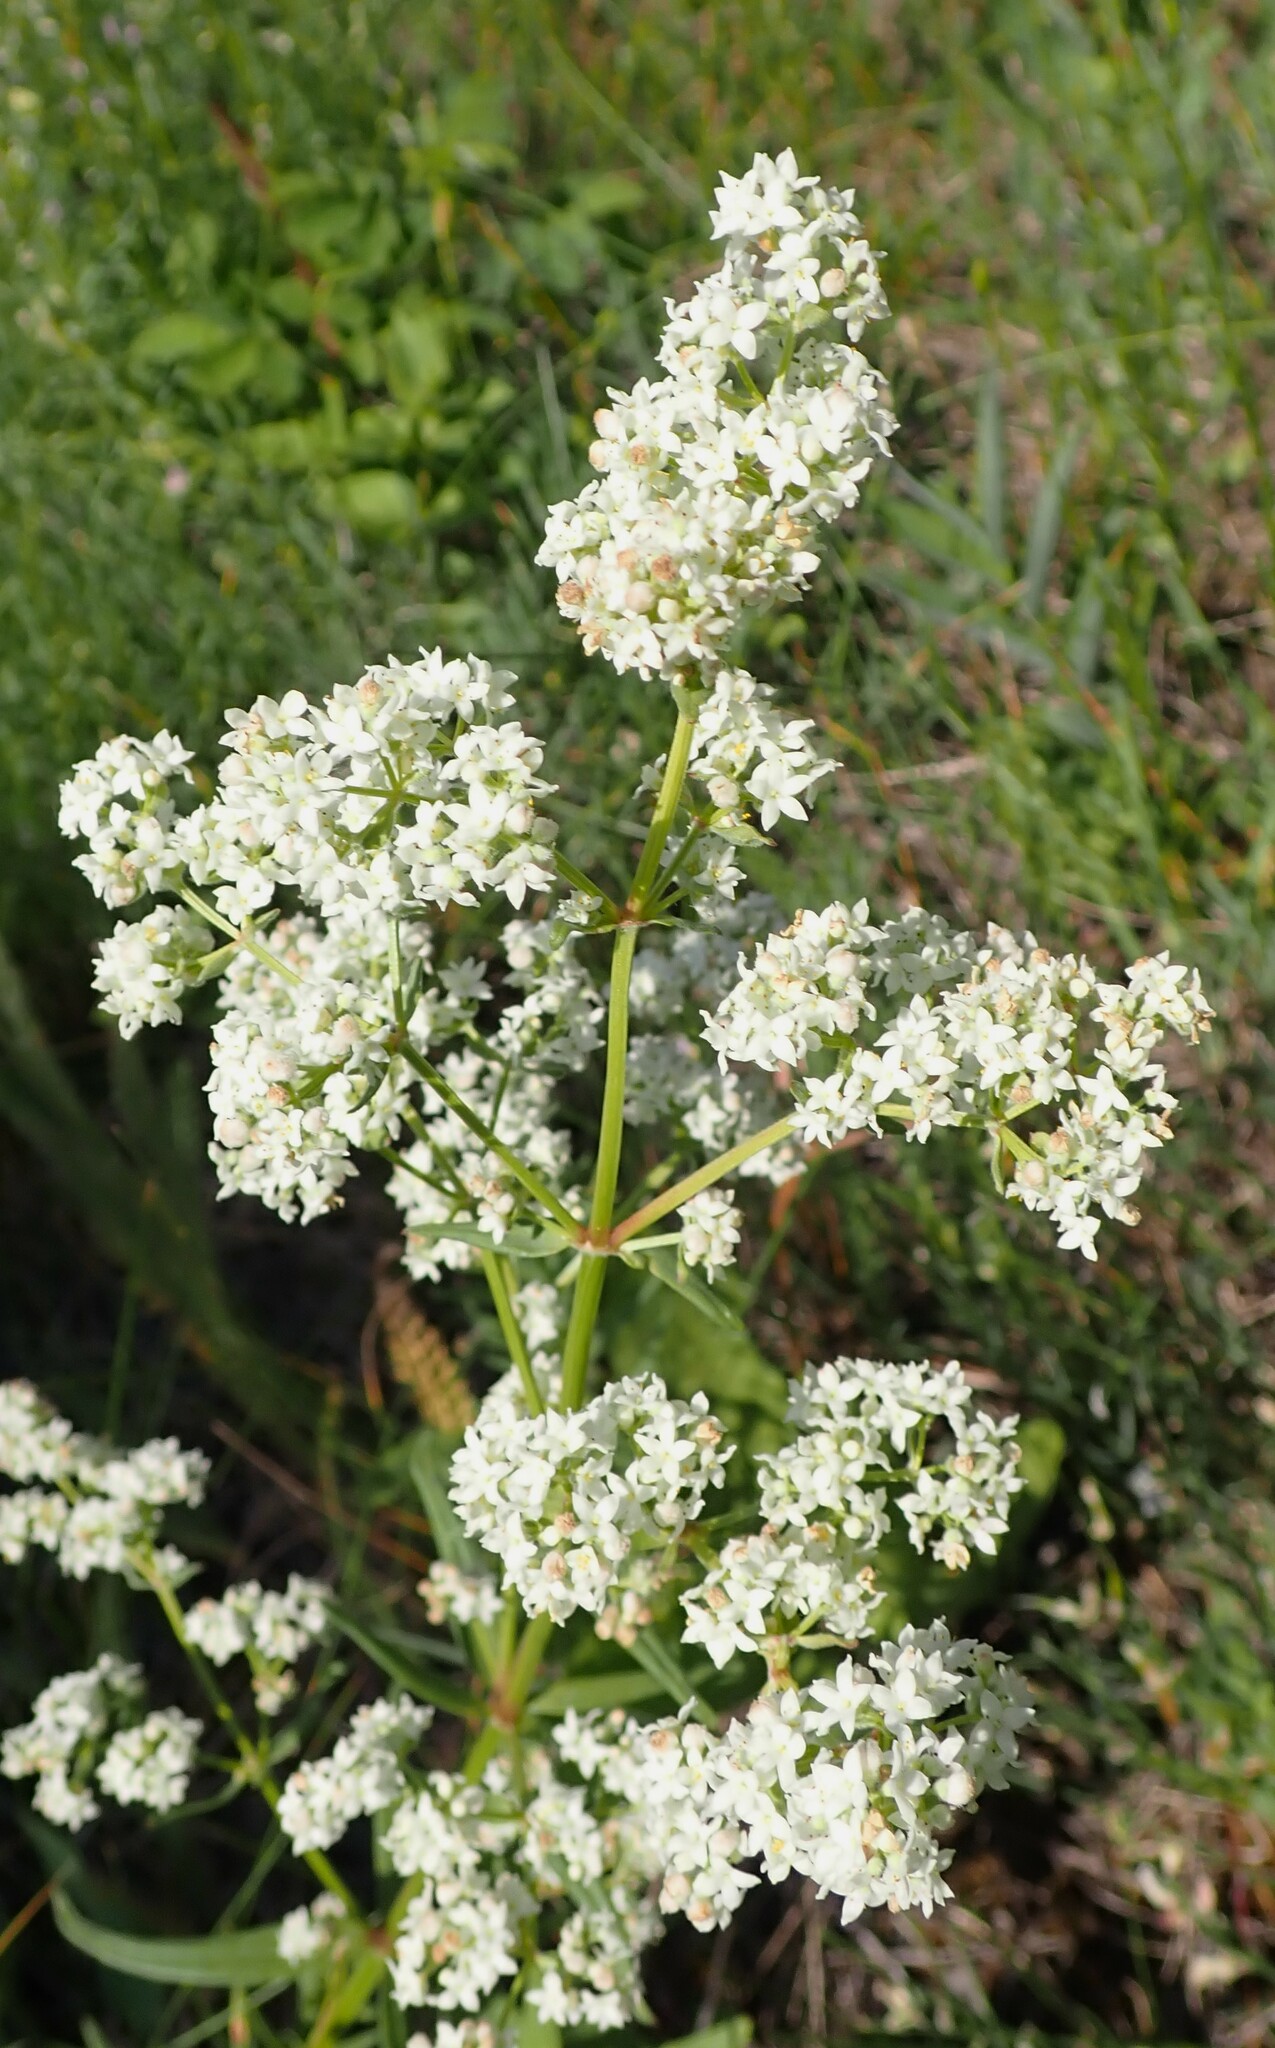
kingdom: Plantae
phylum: Tracheophyta
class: Magnoliopsida
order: Gentianales
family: Rubiaceae
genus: Galium
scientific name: Galium boreale
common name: Northern bedstraw
